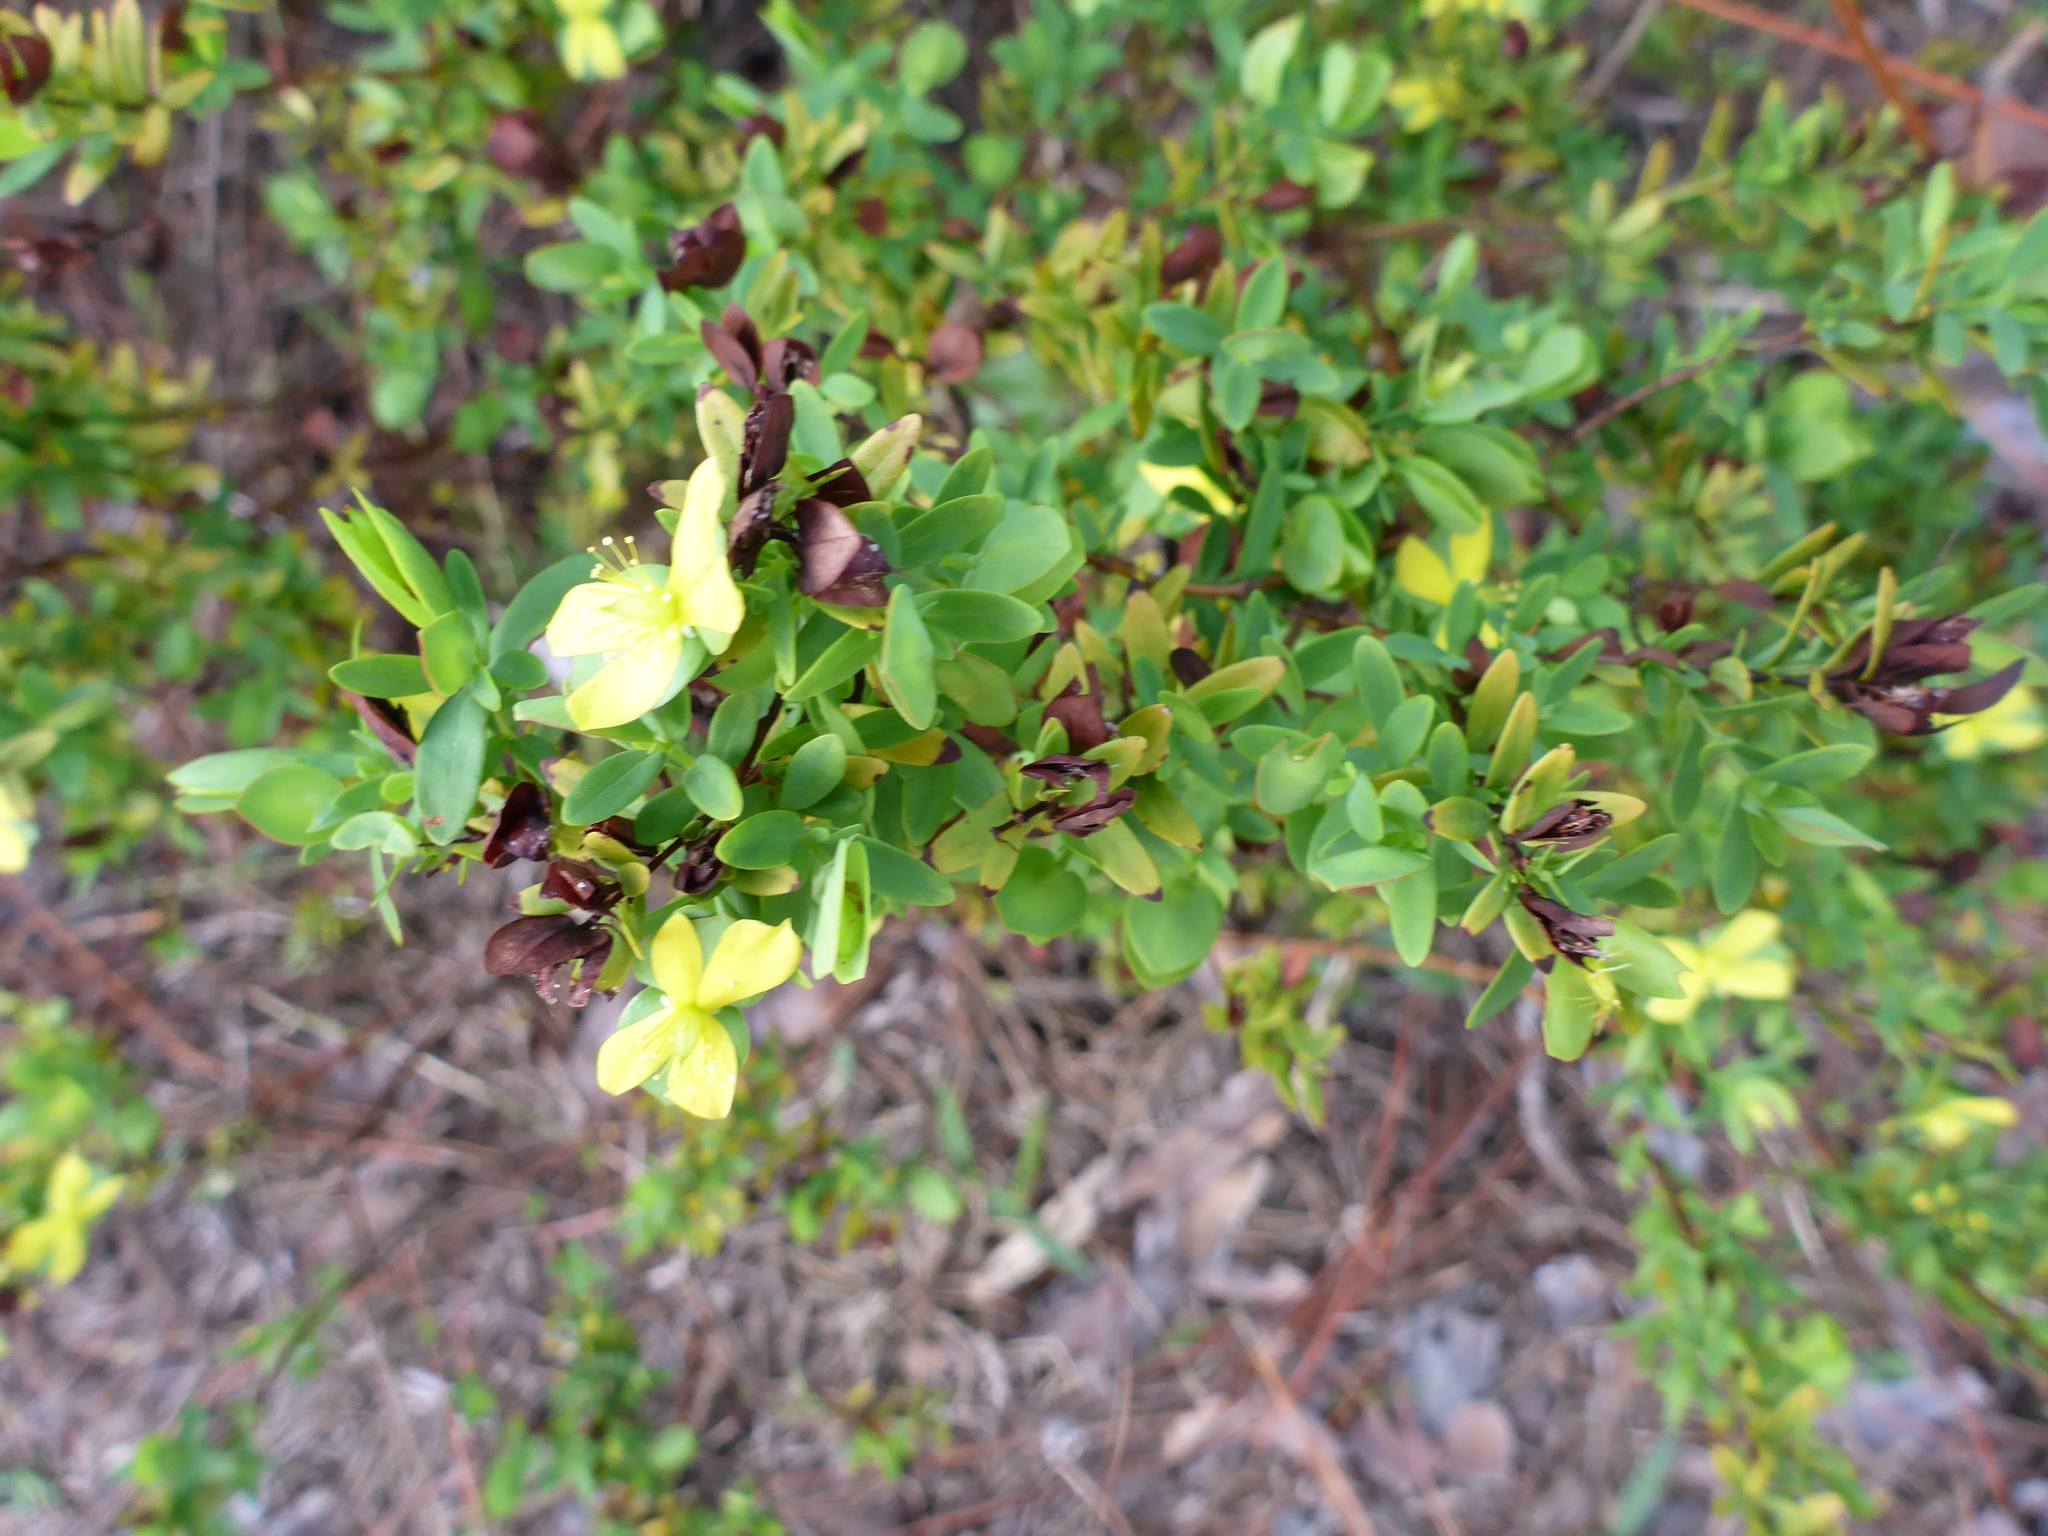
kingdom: Plantae
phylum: Tracheophyta
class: Magnoliopsida
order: Malpighiales
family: Hypericaceae
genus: Hypericum
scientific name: Hypericum crux-andreae
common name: St.-peter's-wort
